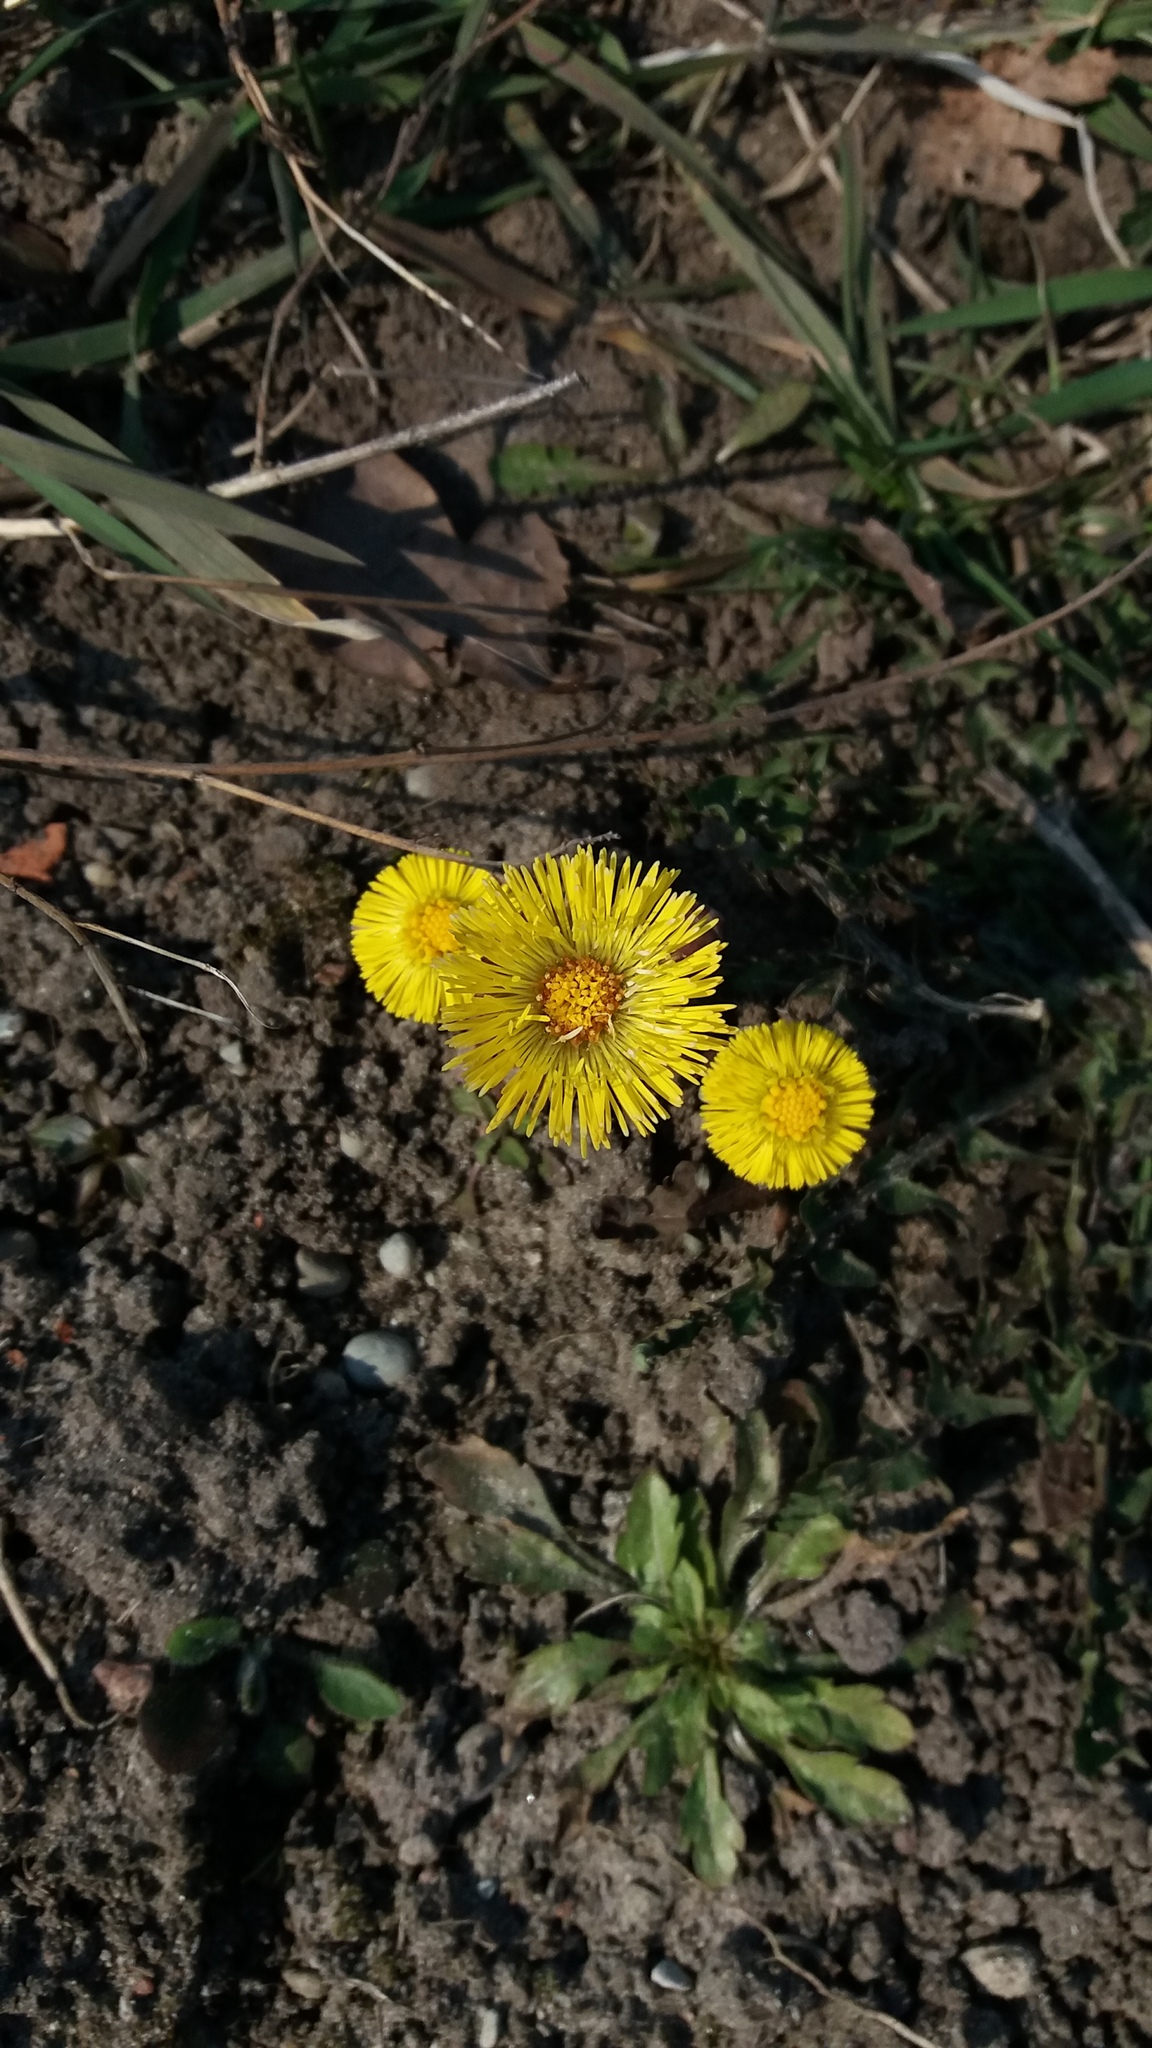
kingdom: Plantae
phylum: Tracheophyta
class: Magnoliopsida
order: Asterales
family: Asteraceae
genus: Tussilago
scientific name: Tussilago farfara
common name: Coltsfoot
